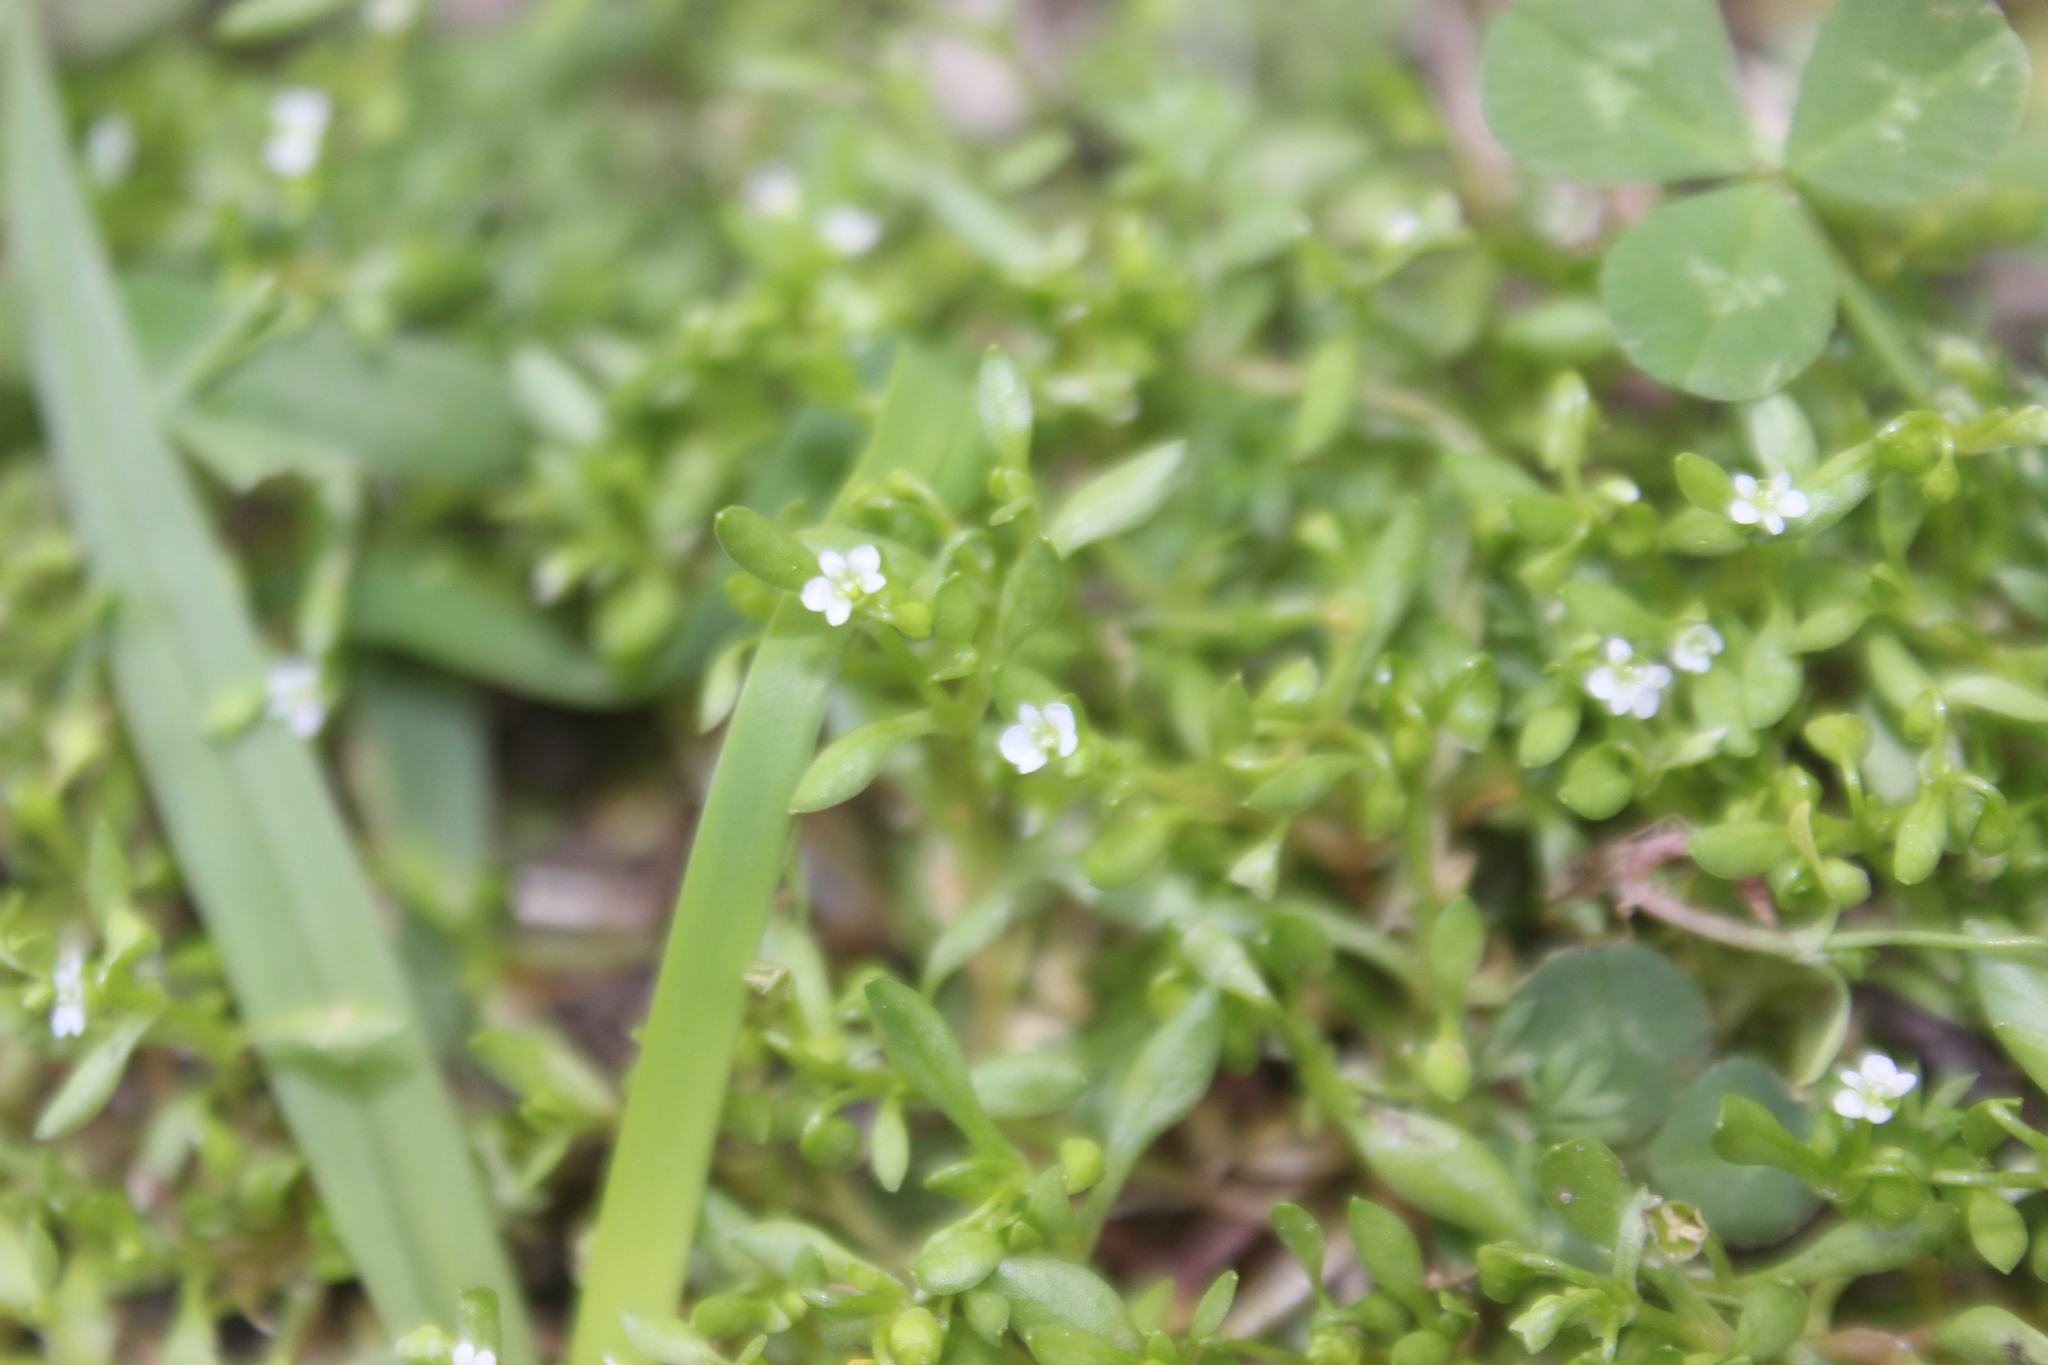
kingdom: Plantae
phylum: Tracheophyta
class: Magnoliopsida
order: Caryophyllales
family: Montiaceae
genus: Montia
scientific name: Montia fontana
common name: Blinks
